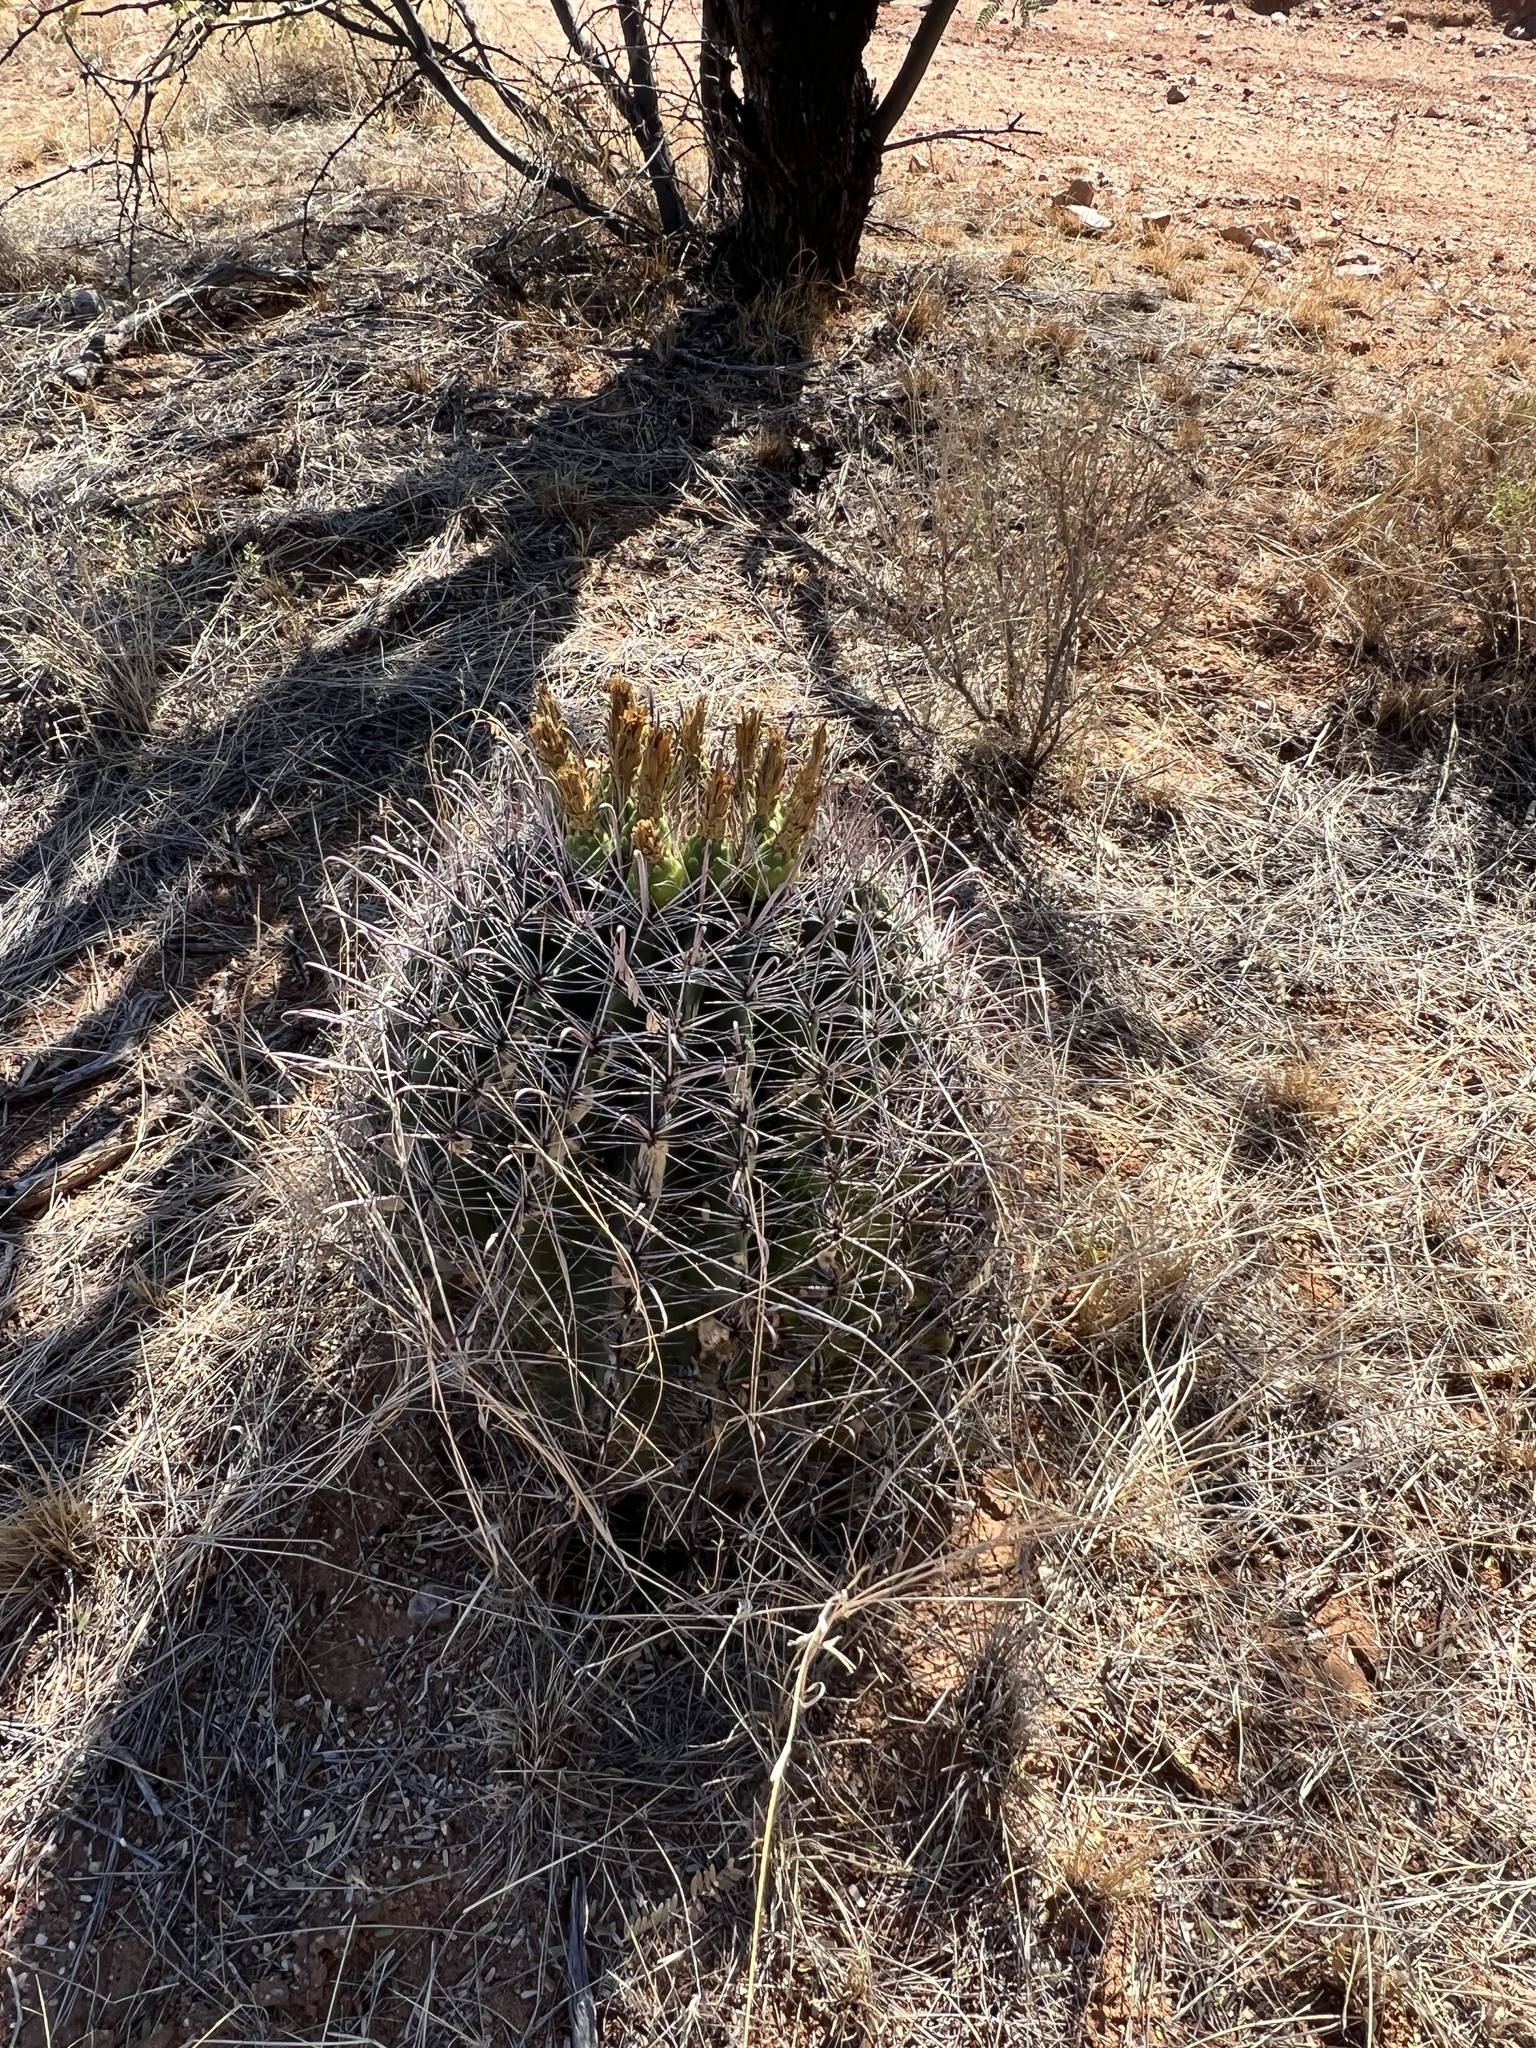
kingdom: Plantae
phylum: Tracheophyta
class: Magnoliopsida
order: Caryophyllales
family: Cactaceae
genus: Ferocactus
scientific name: Ferocactus wislizeni
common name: Candy barrel cactus
